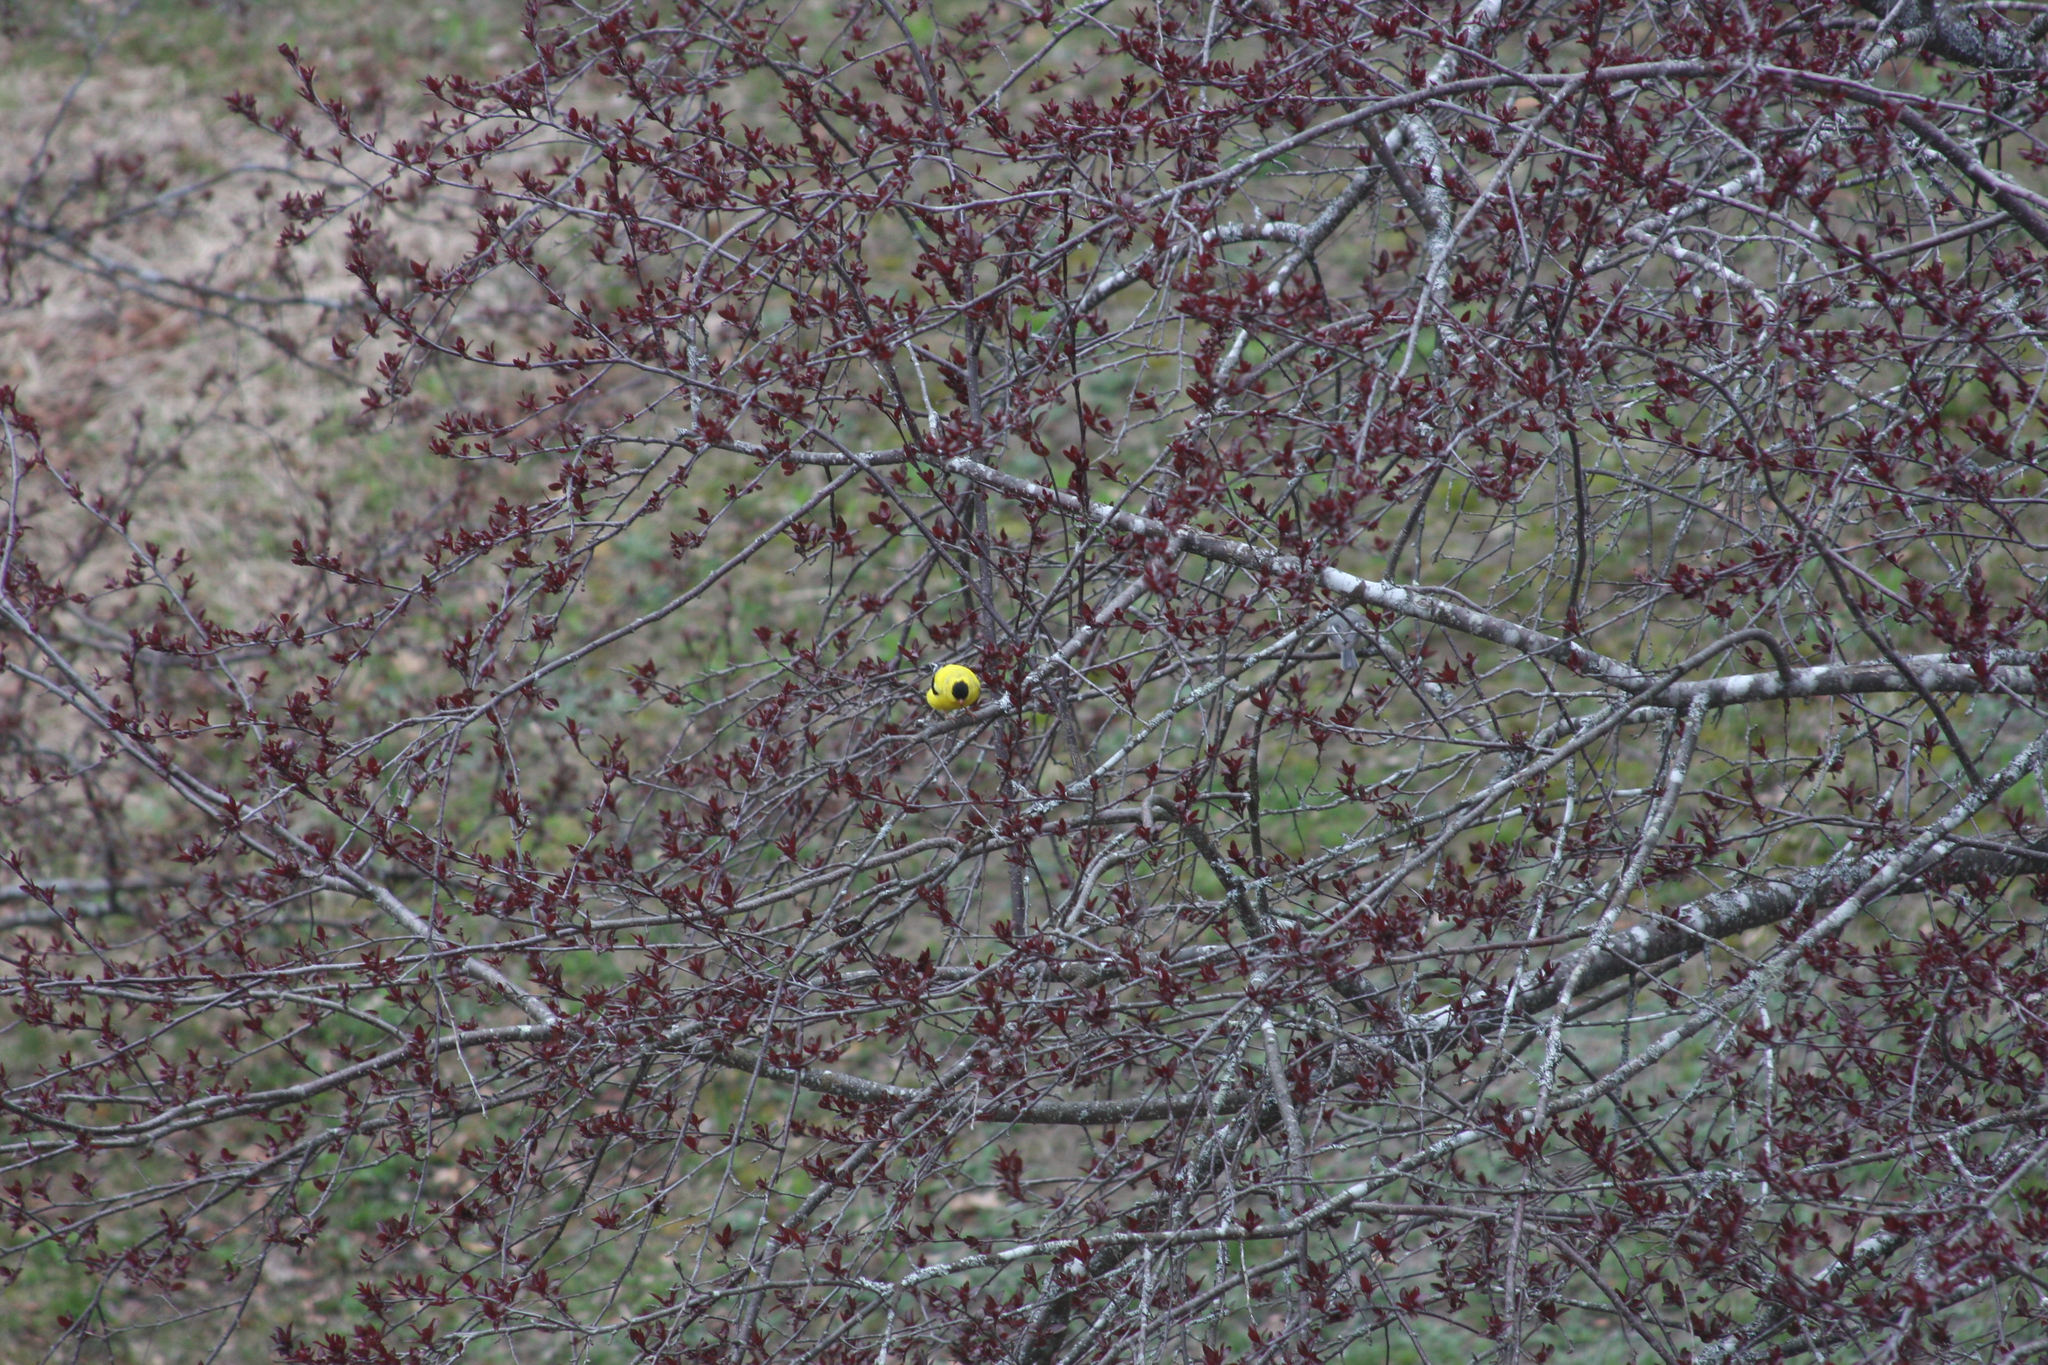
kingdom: Animalia
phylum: Chordata
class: Aves
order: Passeriformes
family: Fringillidae
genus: Spinus
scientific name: Spinus tristis
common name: American goldfinch
